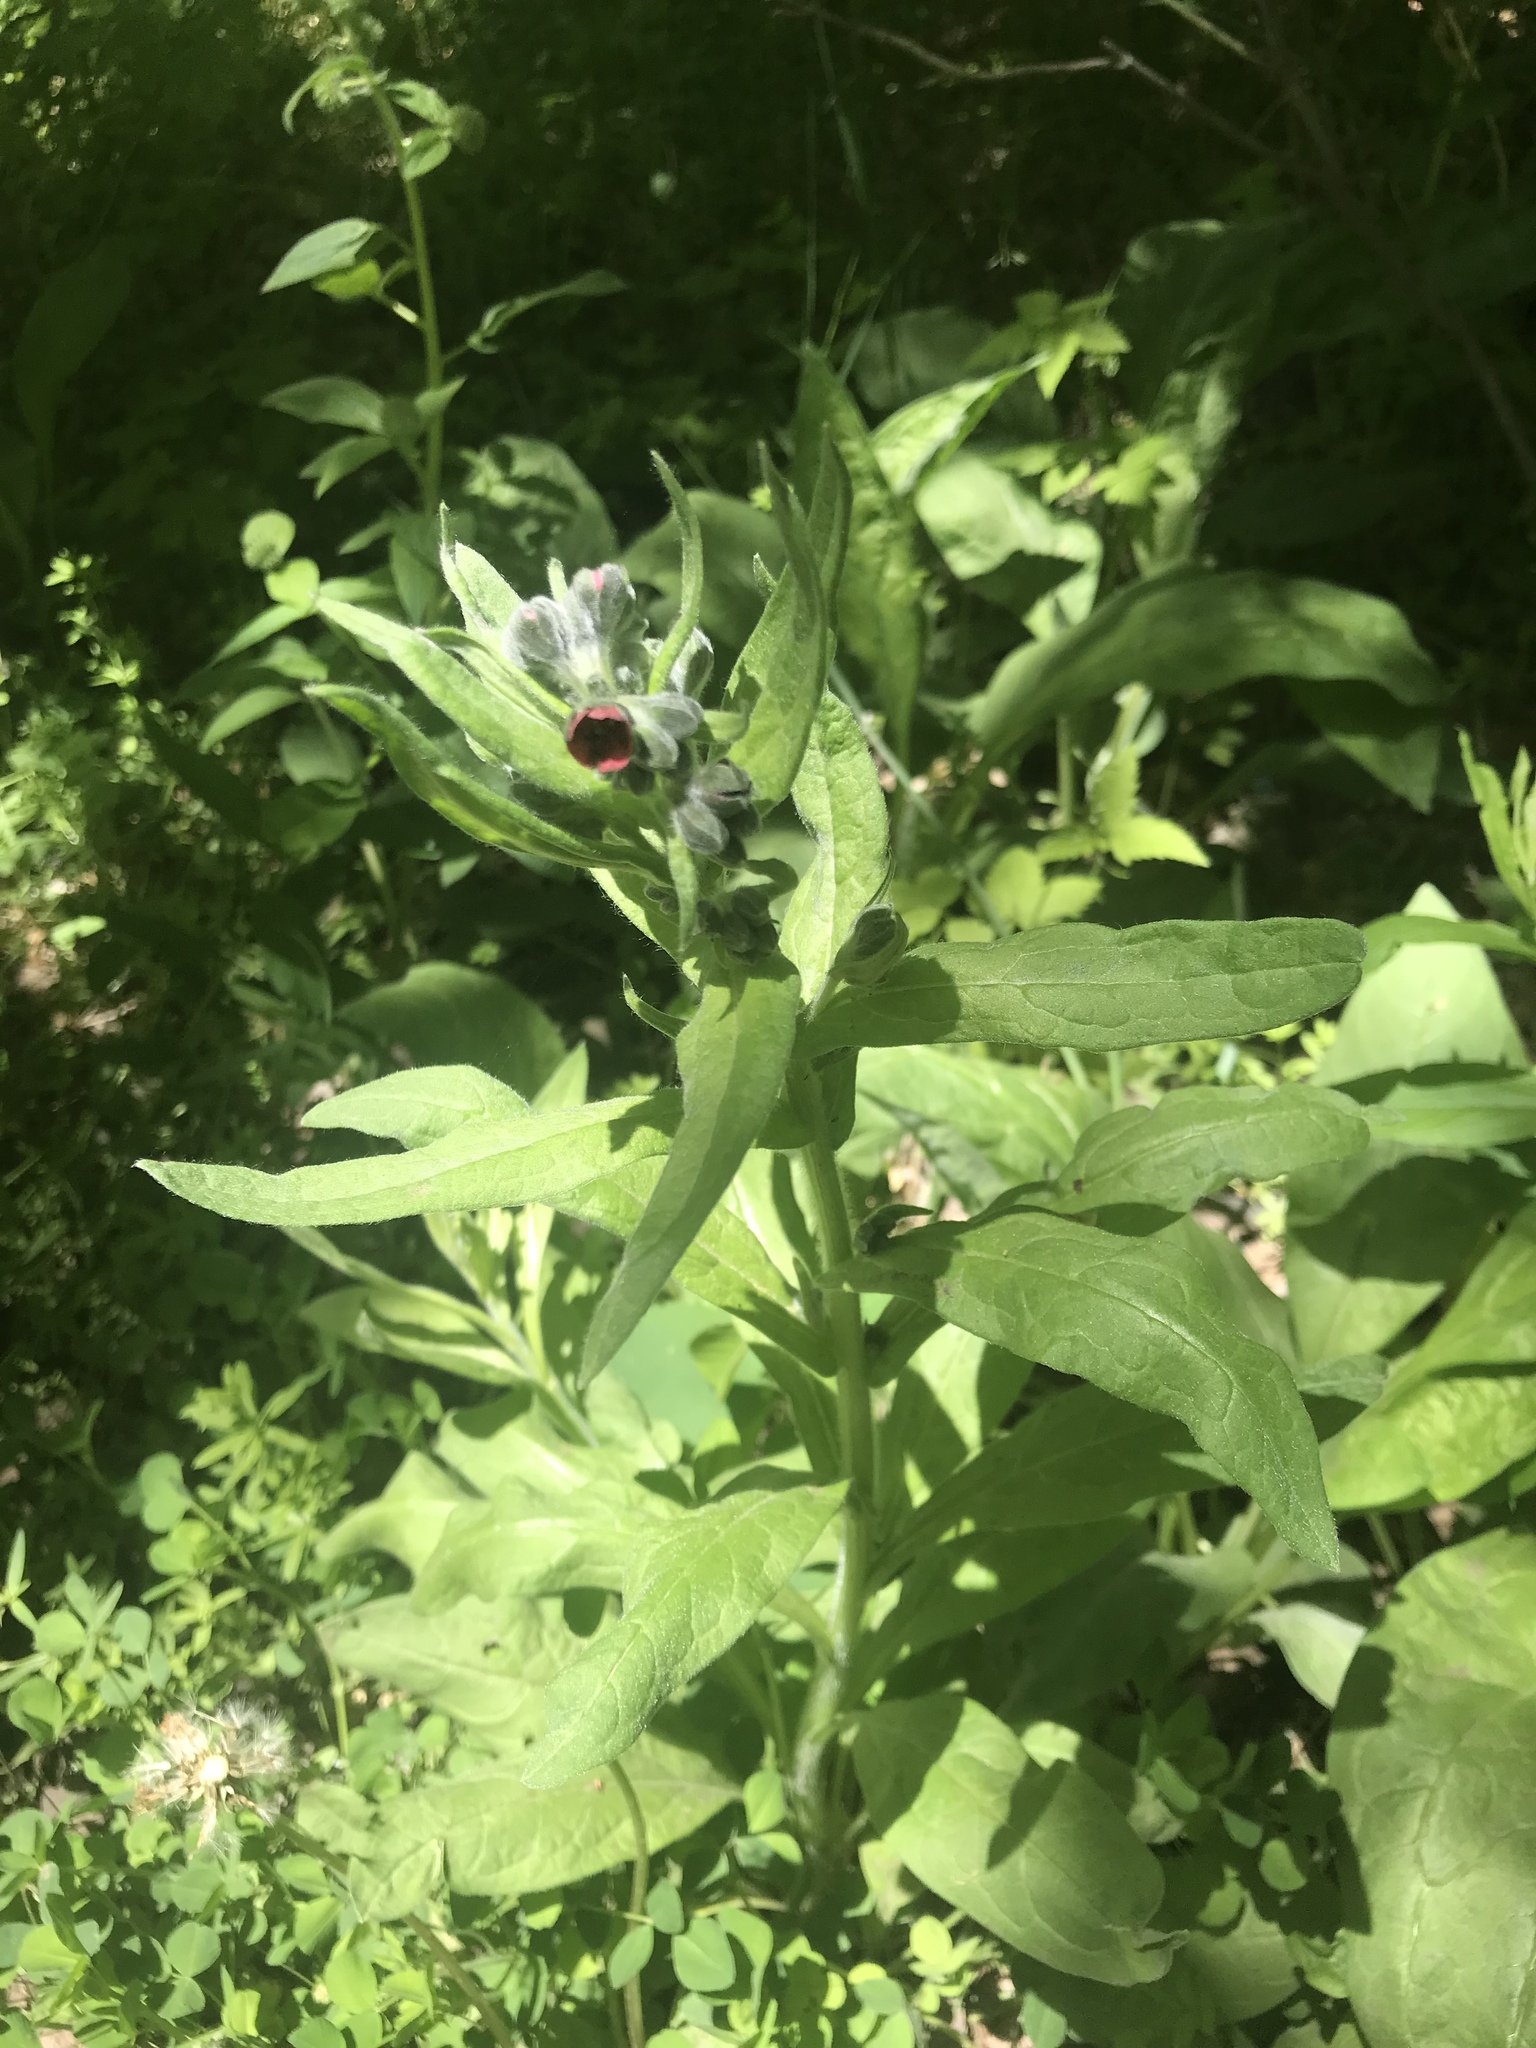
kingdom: Plantae
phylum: Tracheophyta
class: Magnoliopsida
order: Boraginales
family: Boraginaceae
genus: Cynoglossum
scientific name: Cynoglossum officinale
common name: Hound's-tongue
